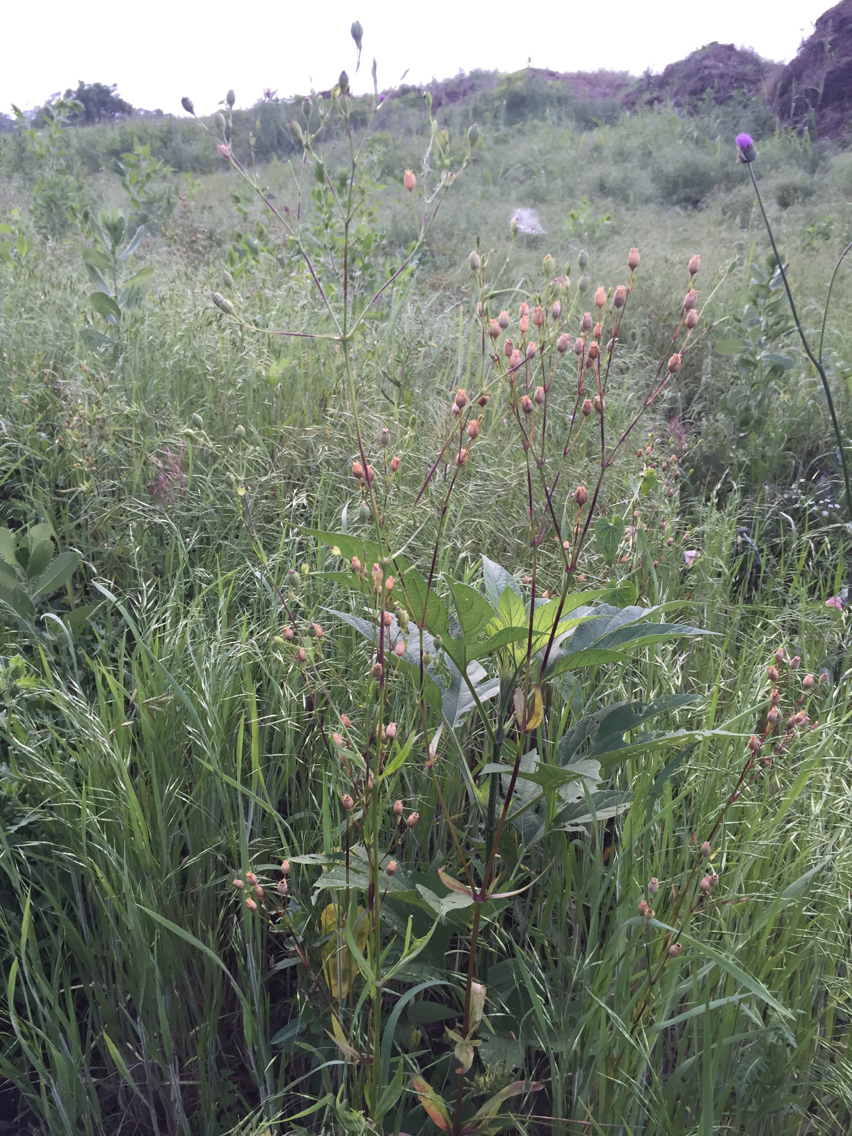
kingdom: Plantae
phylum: Tracheophyta
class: Magnoliopsida
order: Caryophyllales
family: Caryophyllaceae
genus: Silene
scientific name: Silene antirrhina
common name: Sleepy catchfly
